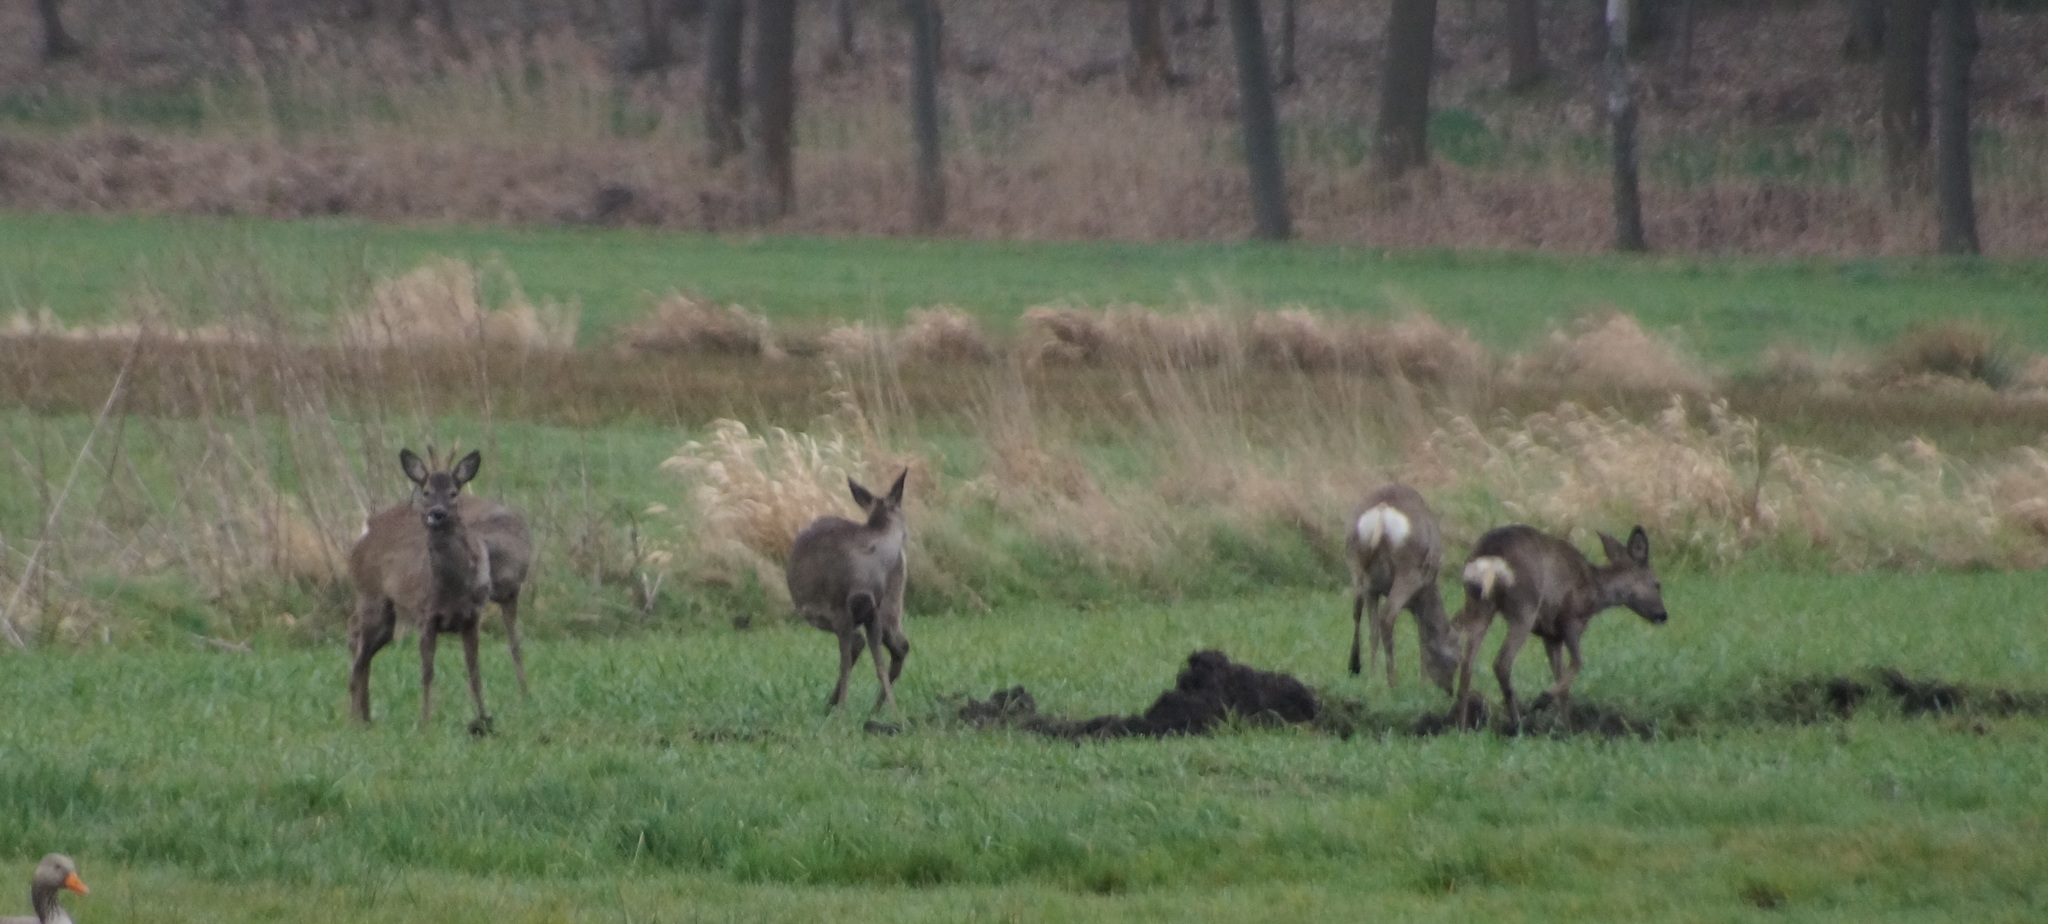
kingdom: Animalia
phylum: Chordata
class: Mammalia
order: Artiodactyla
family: Cervidae
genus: Capreolus
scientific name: Capreolus capreolus
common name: Western roe deer
